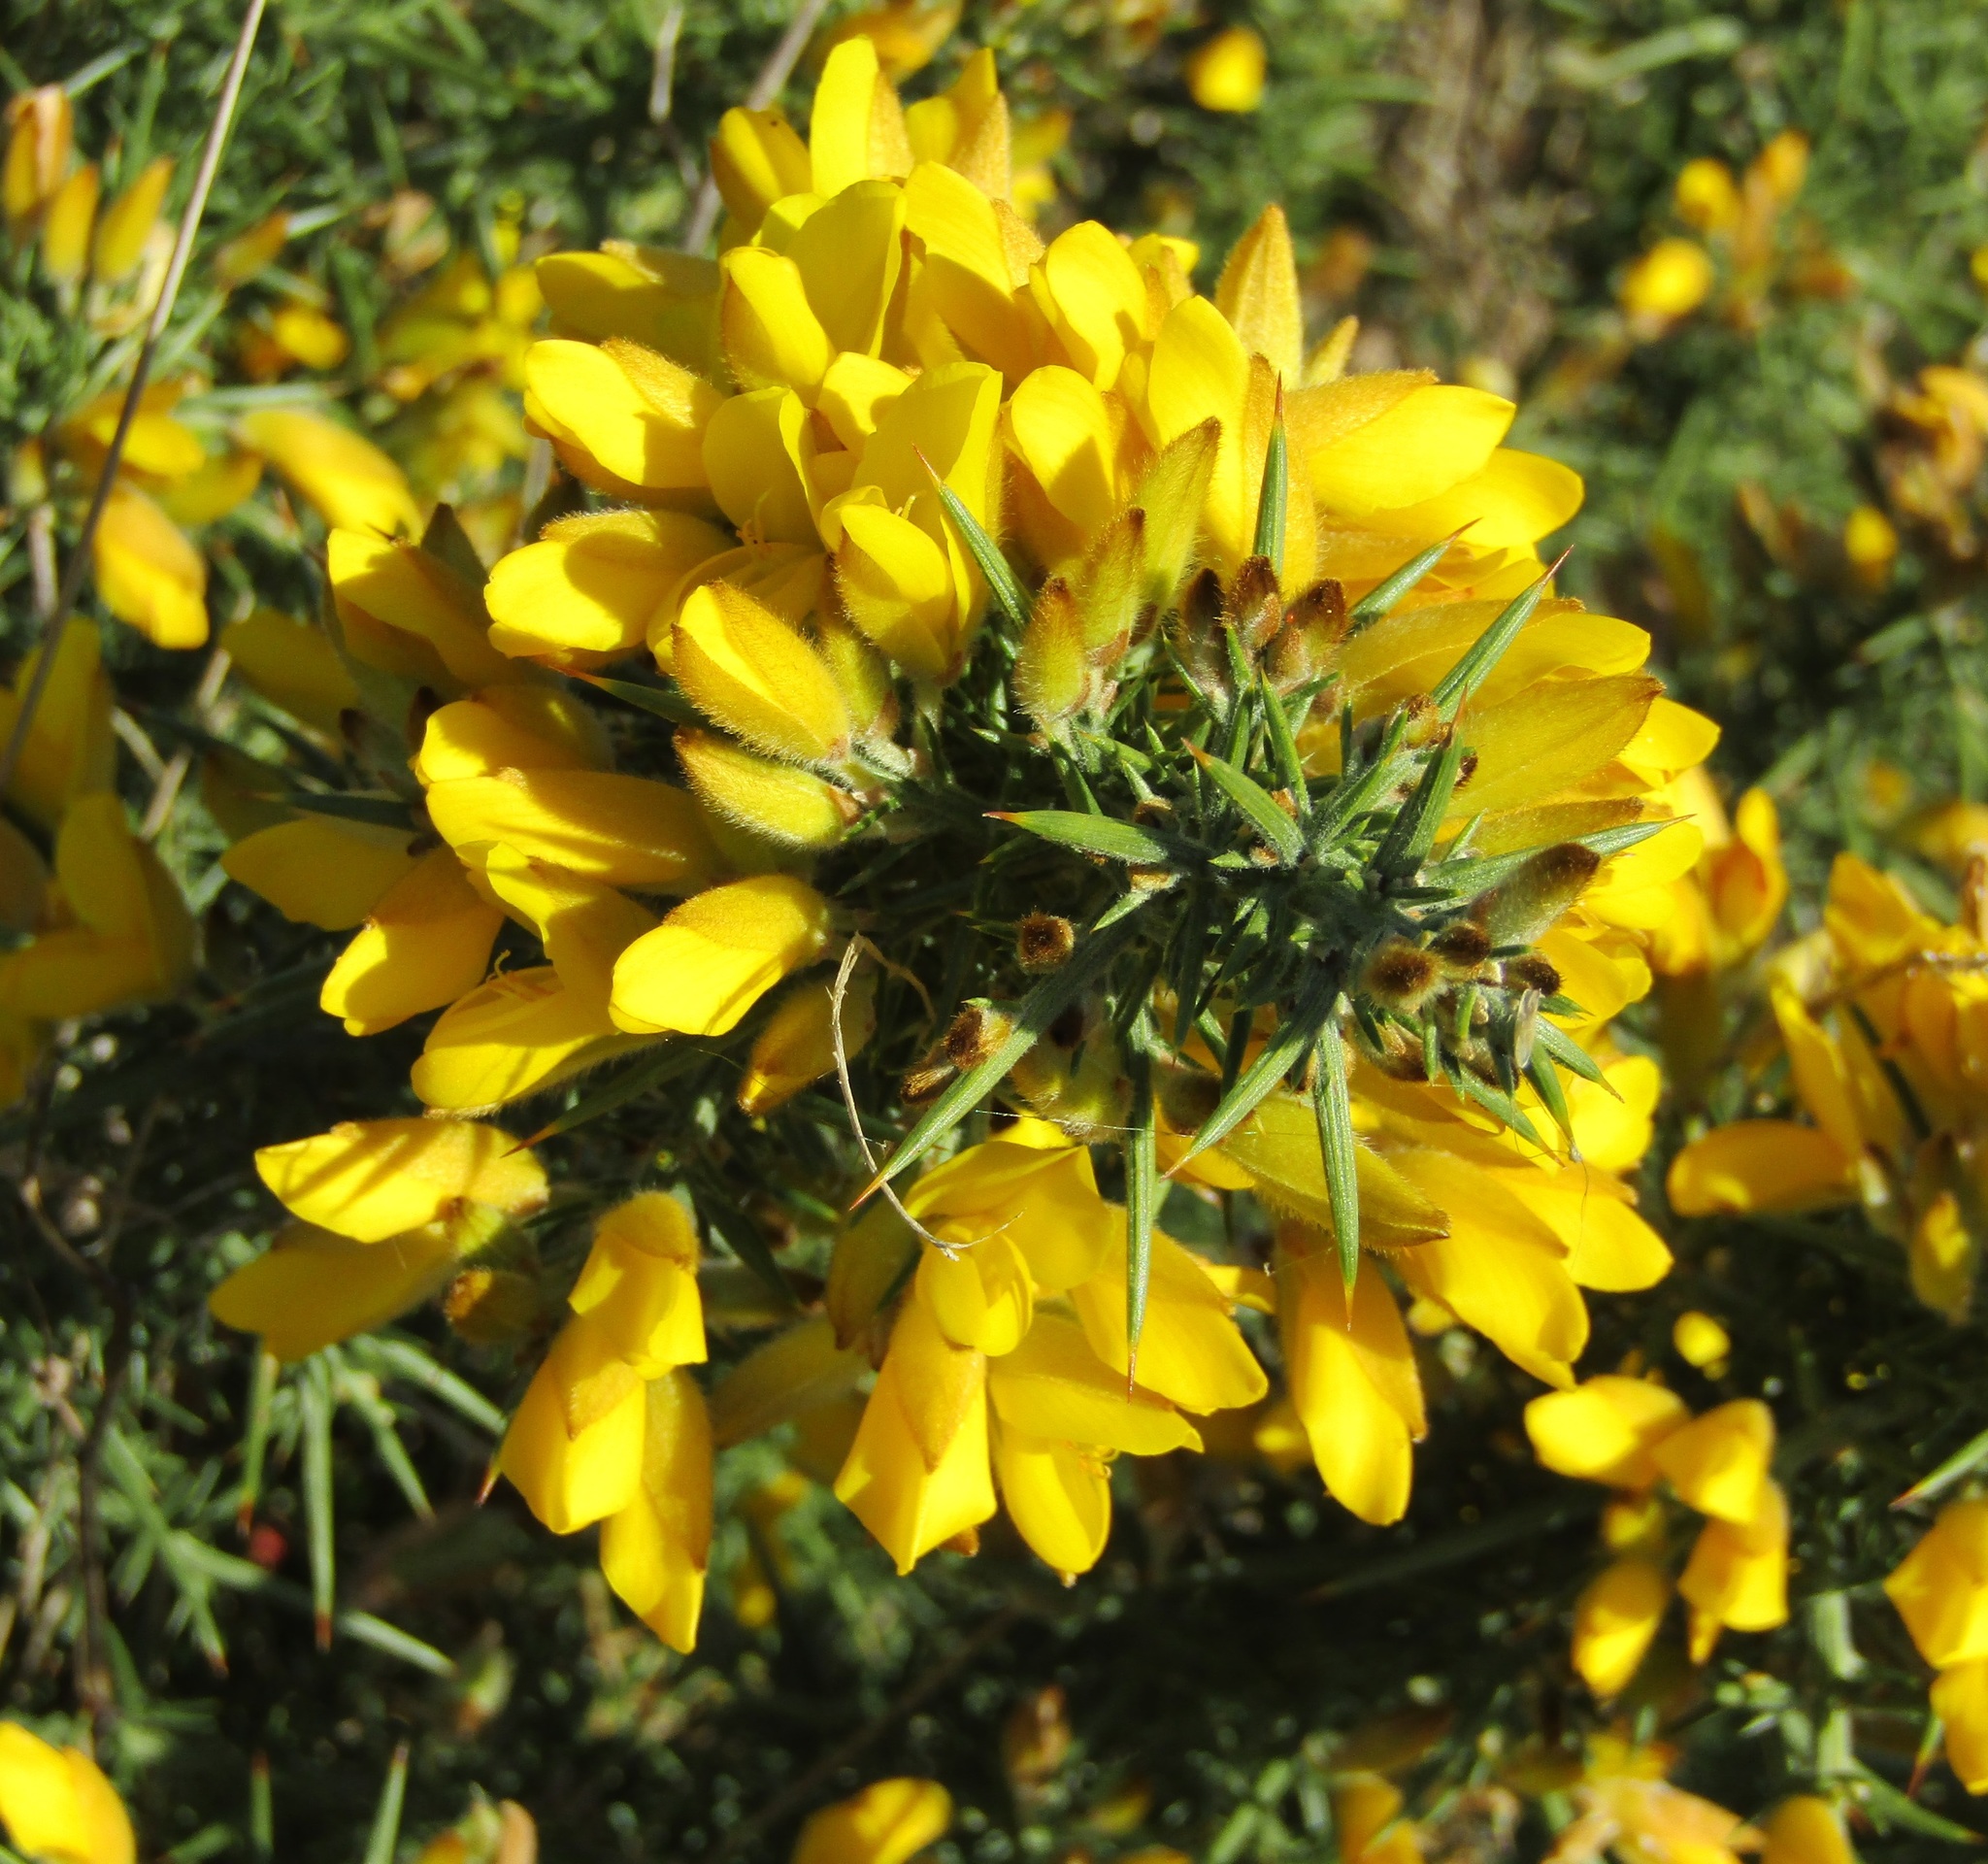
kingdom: Plantae
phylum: Tracheophyta
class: Magnoliopsida
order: Fabales
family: Fabaceae
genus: Ulex
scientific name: Ulex europaeus
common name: Common gorse
